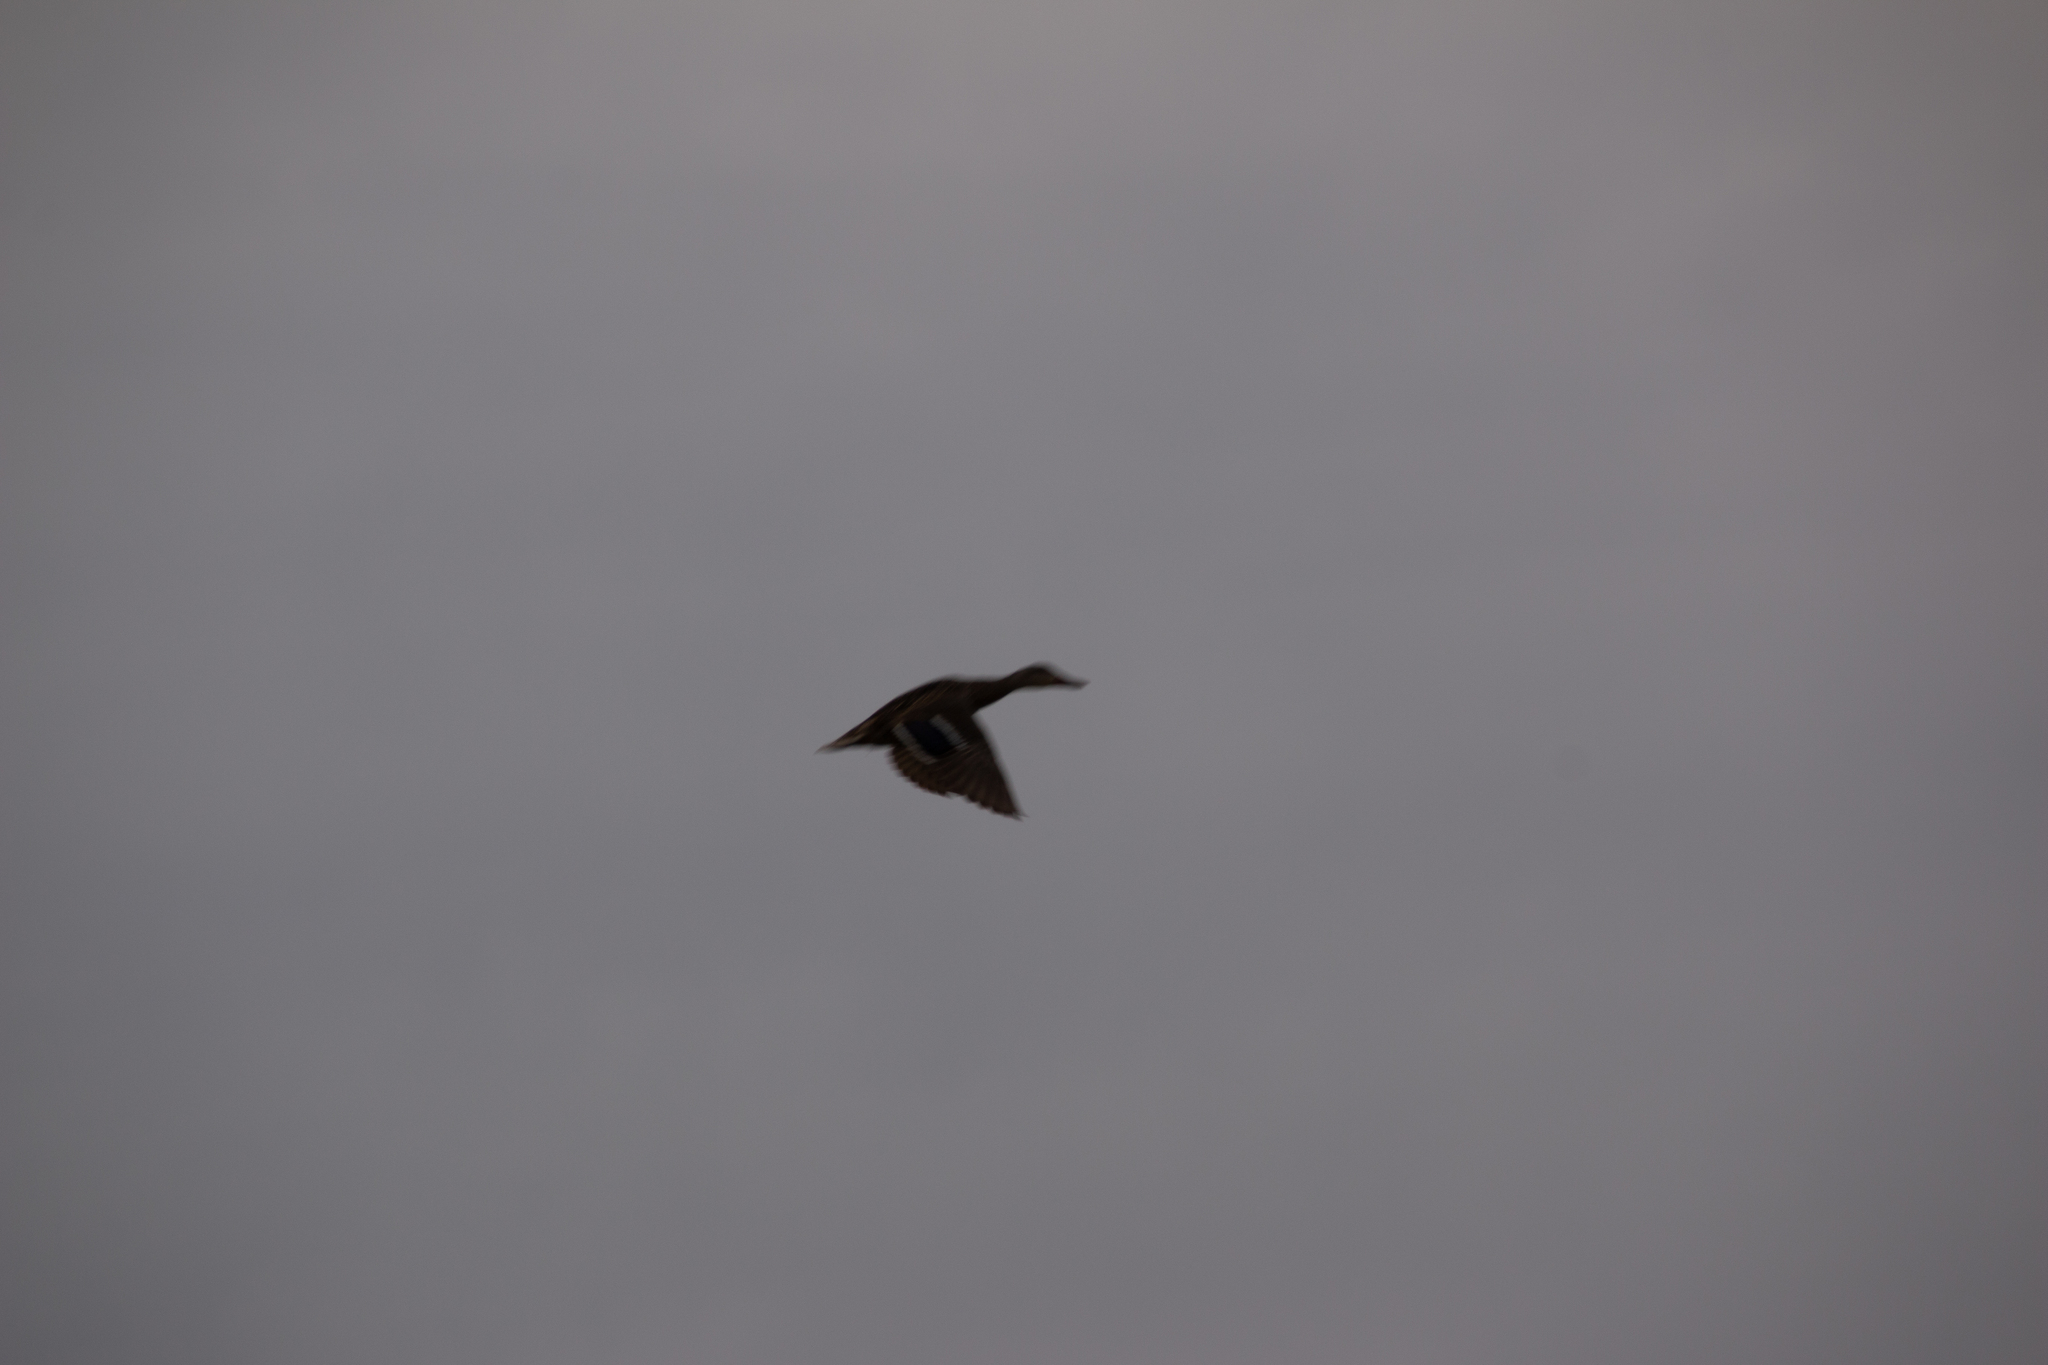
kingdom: Animalia
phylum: Chordata
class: Aves
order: Anseriformes
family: Anatidae
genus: Anas
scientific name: Anas platyrhynchos
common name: Mallard
